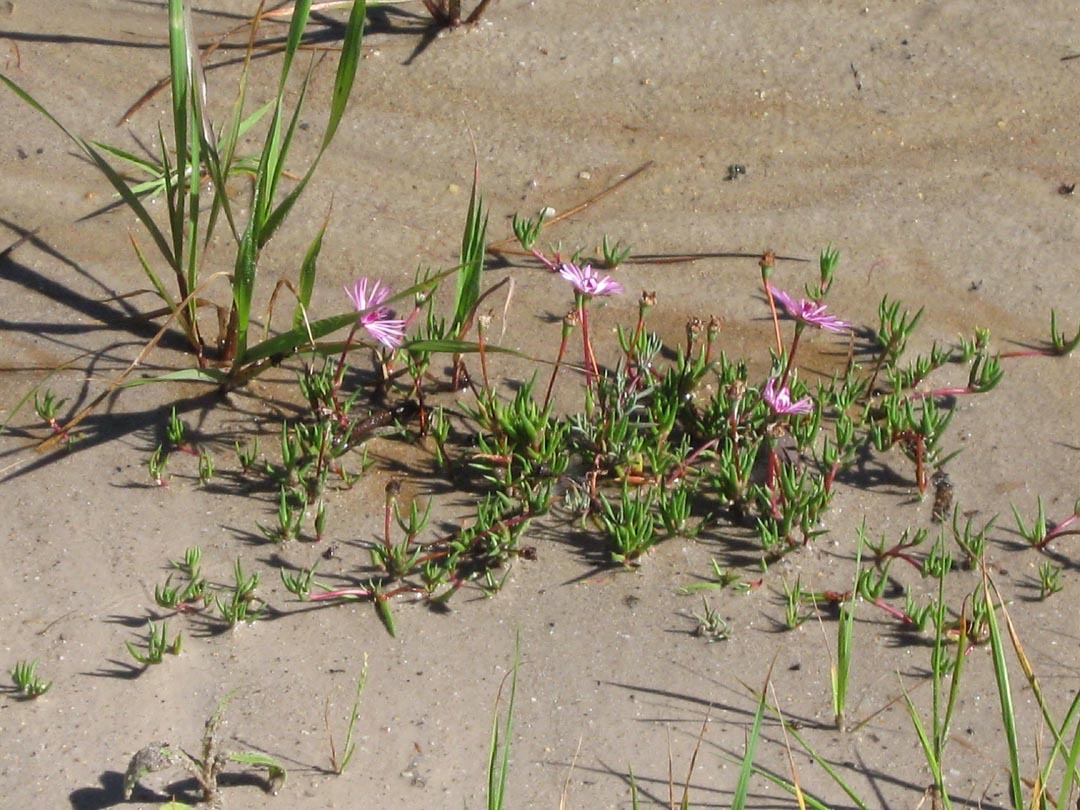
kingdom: Plantae
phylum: Tracheophyta
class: Magnoliopsida
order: Caryophyllales
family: Aizoaceae
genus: Lampranthus
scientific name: Lampranthus filicaulis
